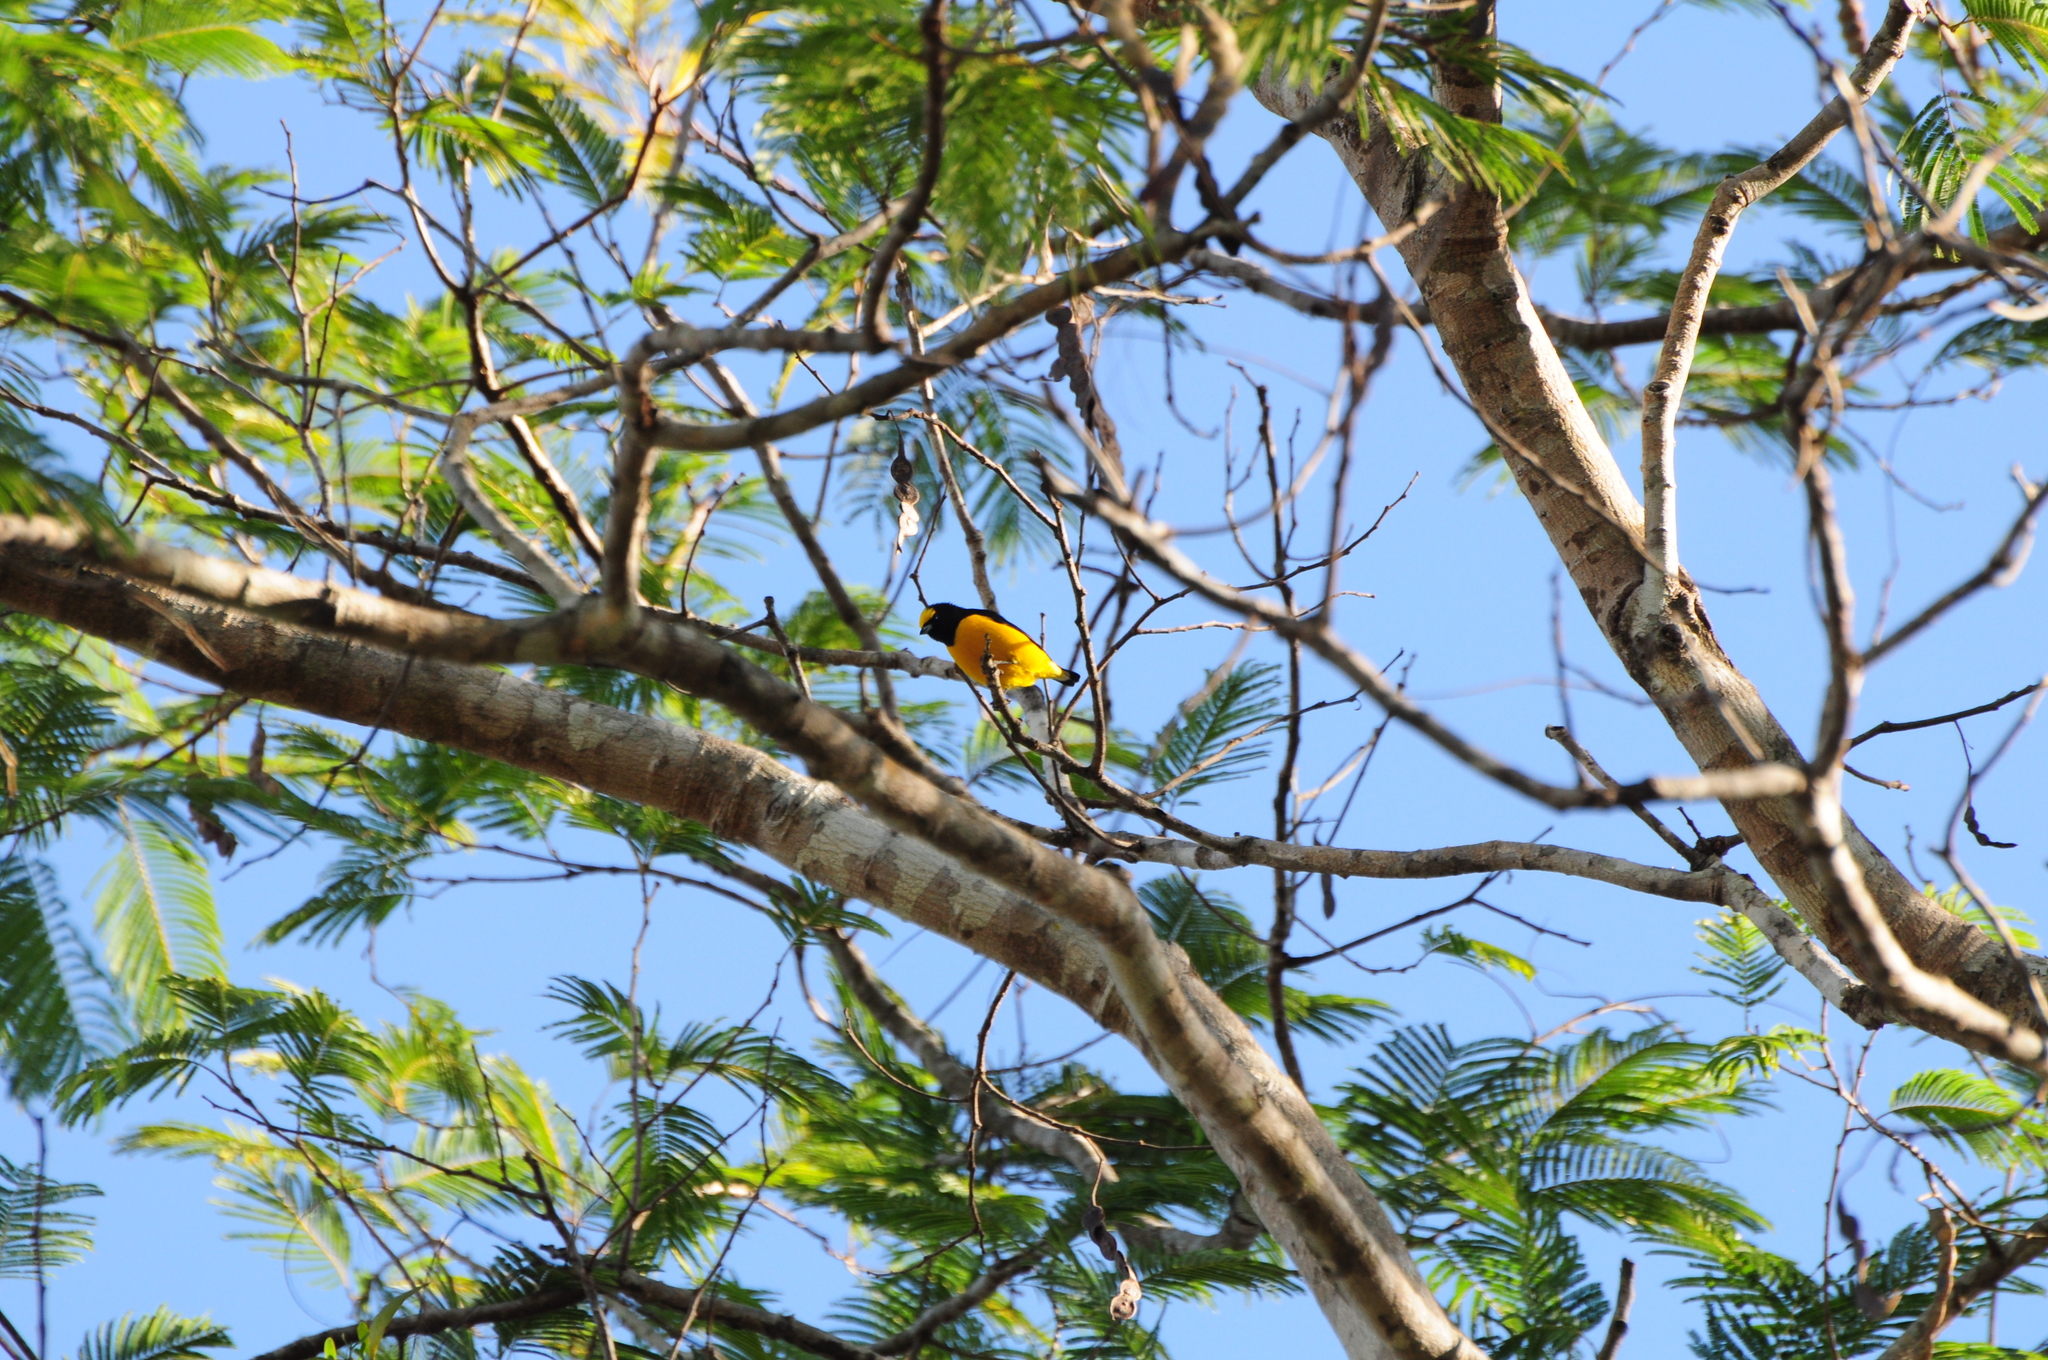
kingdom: Animalia
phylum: Chordata
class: Aves
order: Passeriformes
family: Fringillidae
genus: Euphonia
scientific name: Euphonia chlorotica
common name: Purple-throated euphonia
